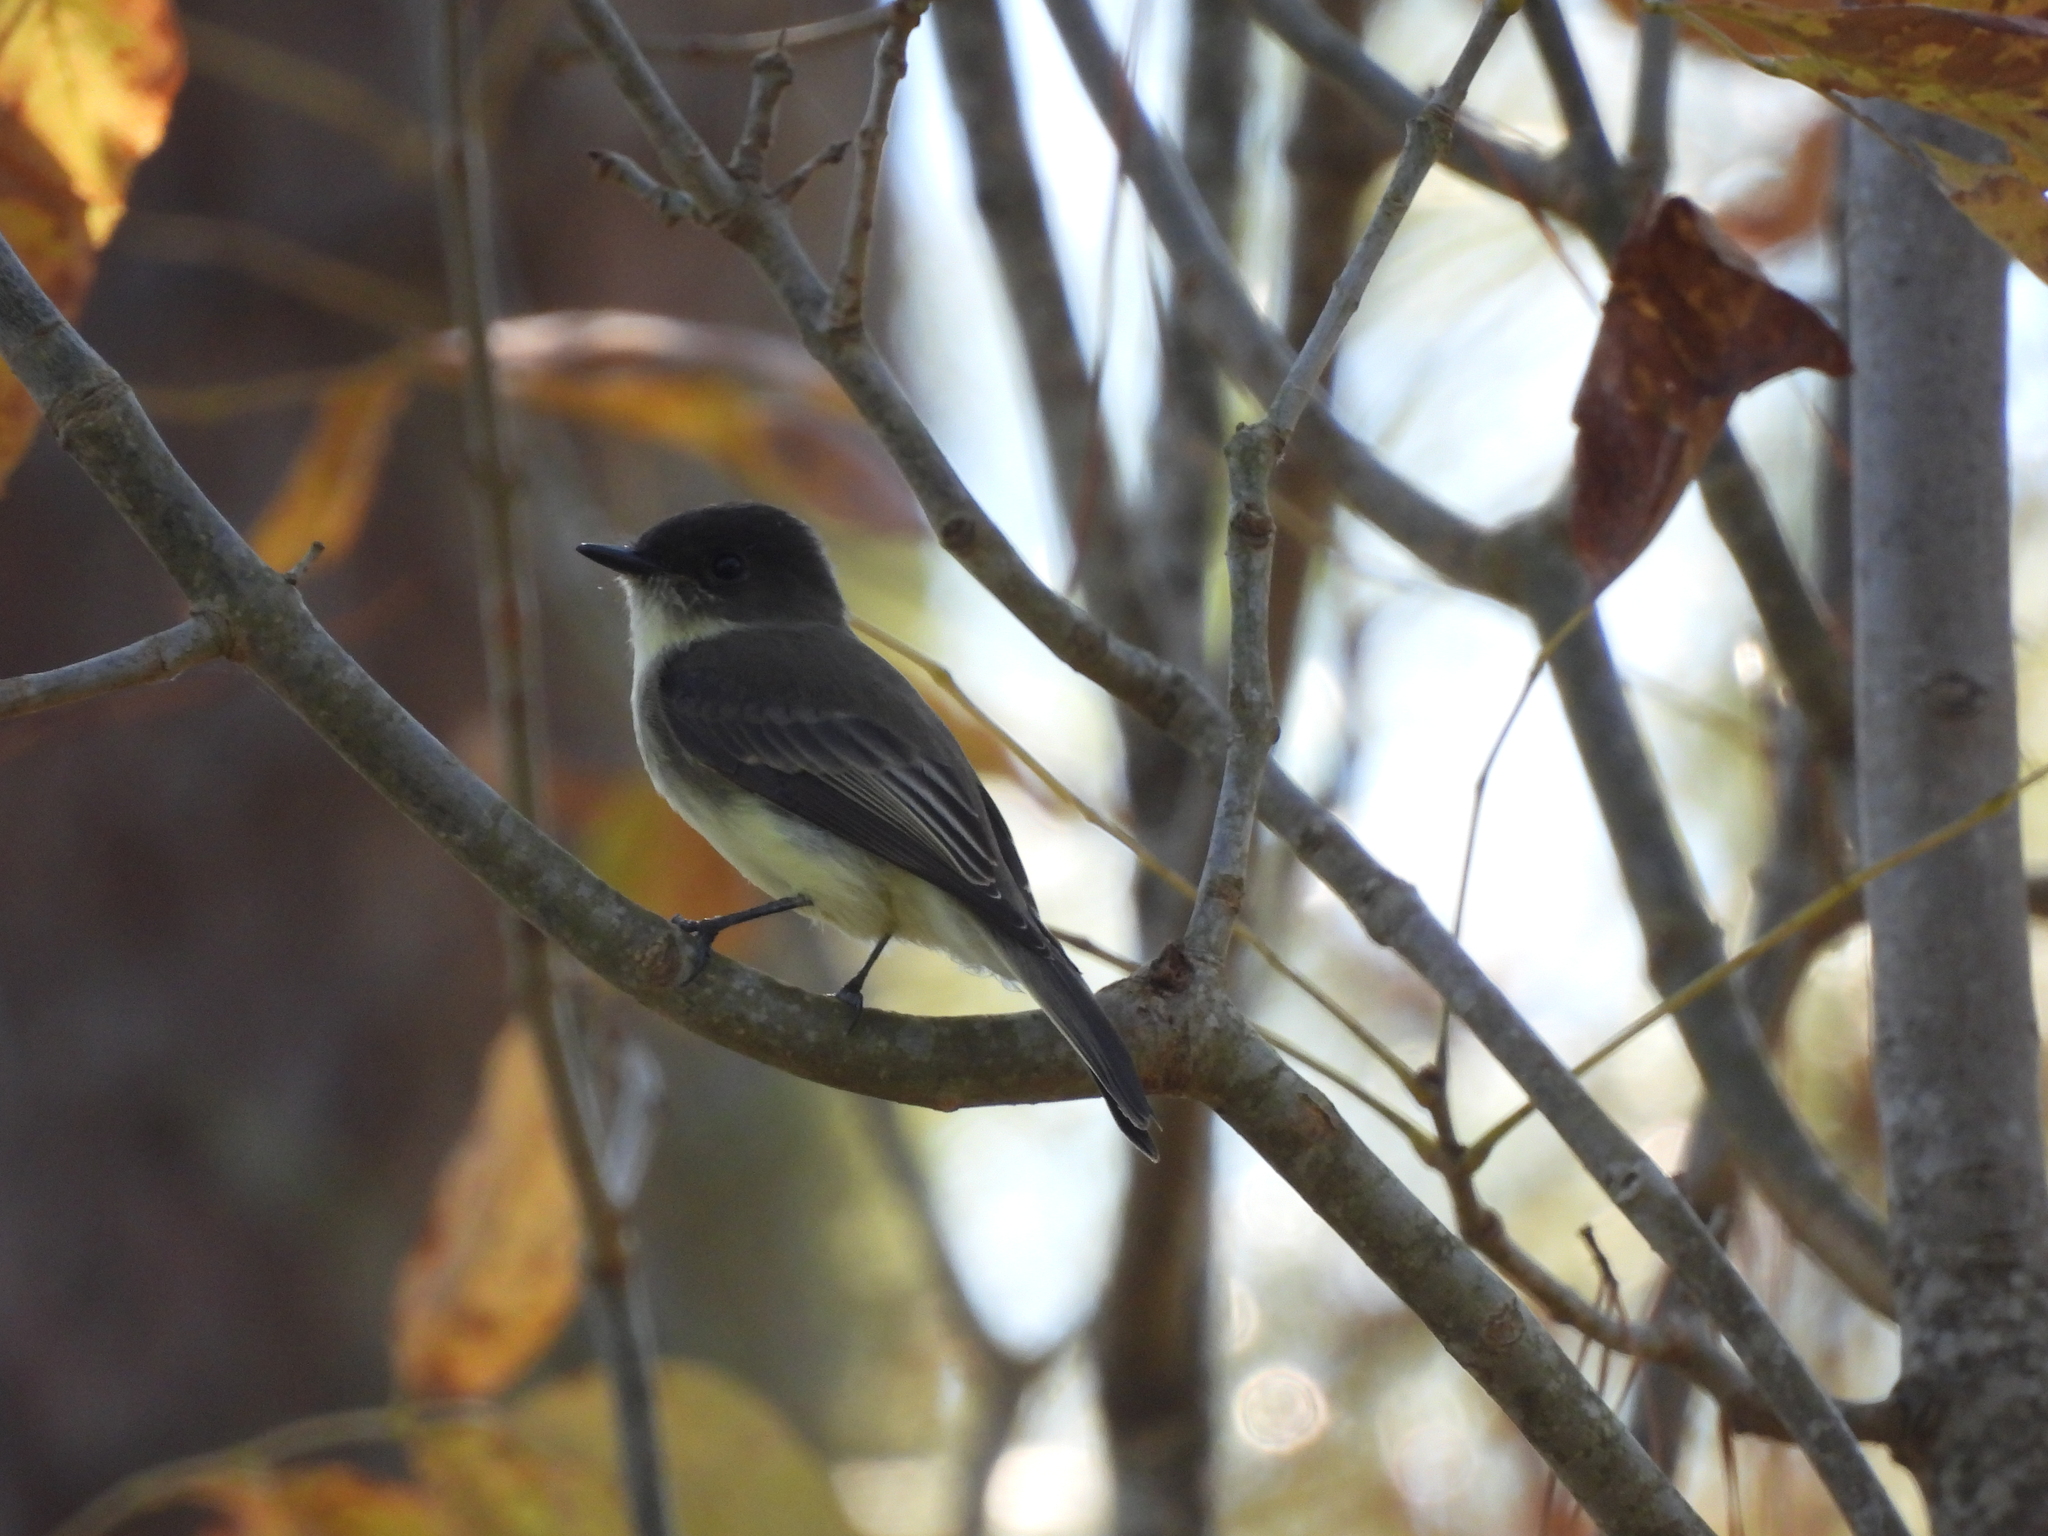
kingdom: Animalia
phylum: Chordata
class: Aves
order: Passeriformes
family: Tyrannidae
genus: Sayornis
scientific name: Sayornis phoebe
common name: Eastern phoebe
